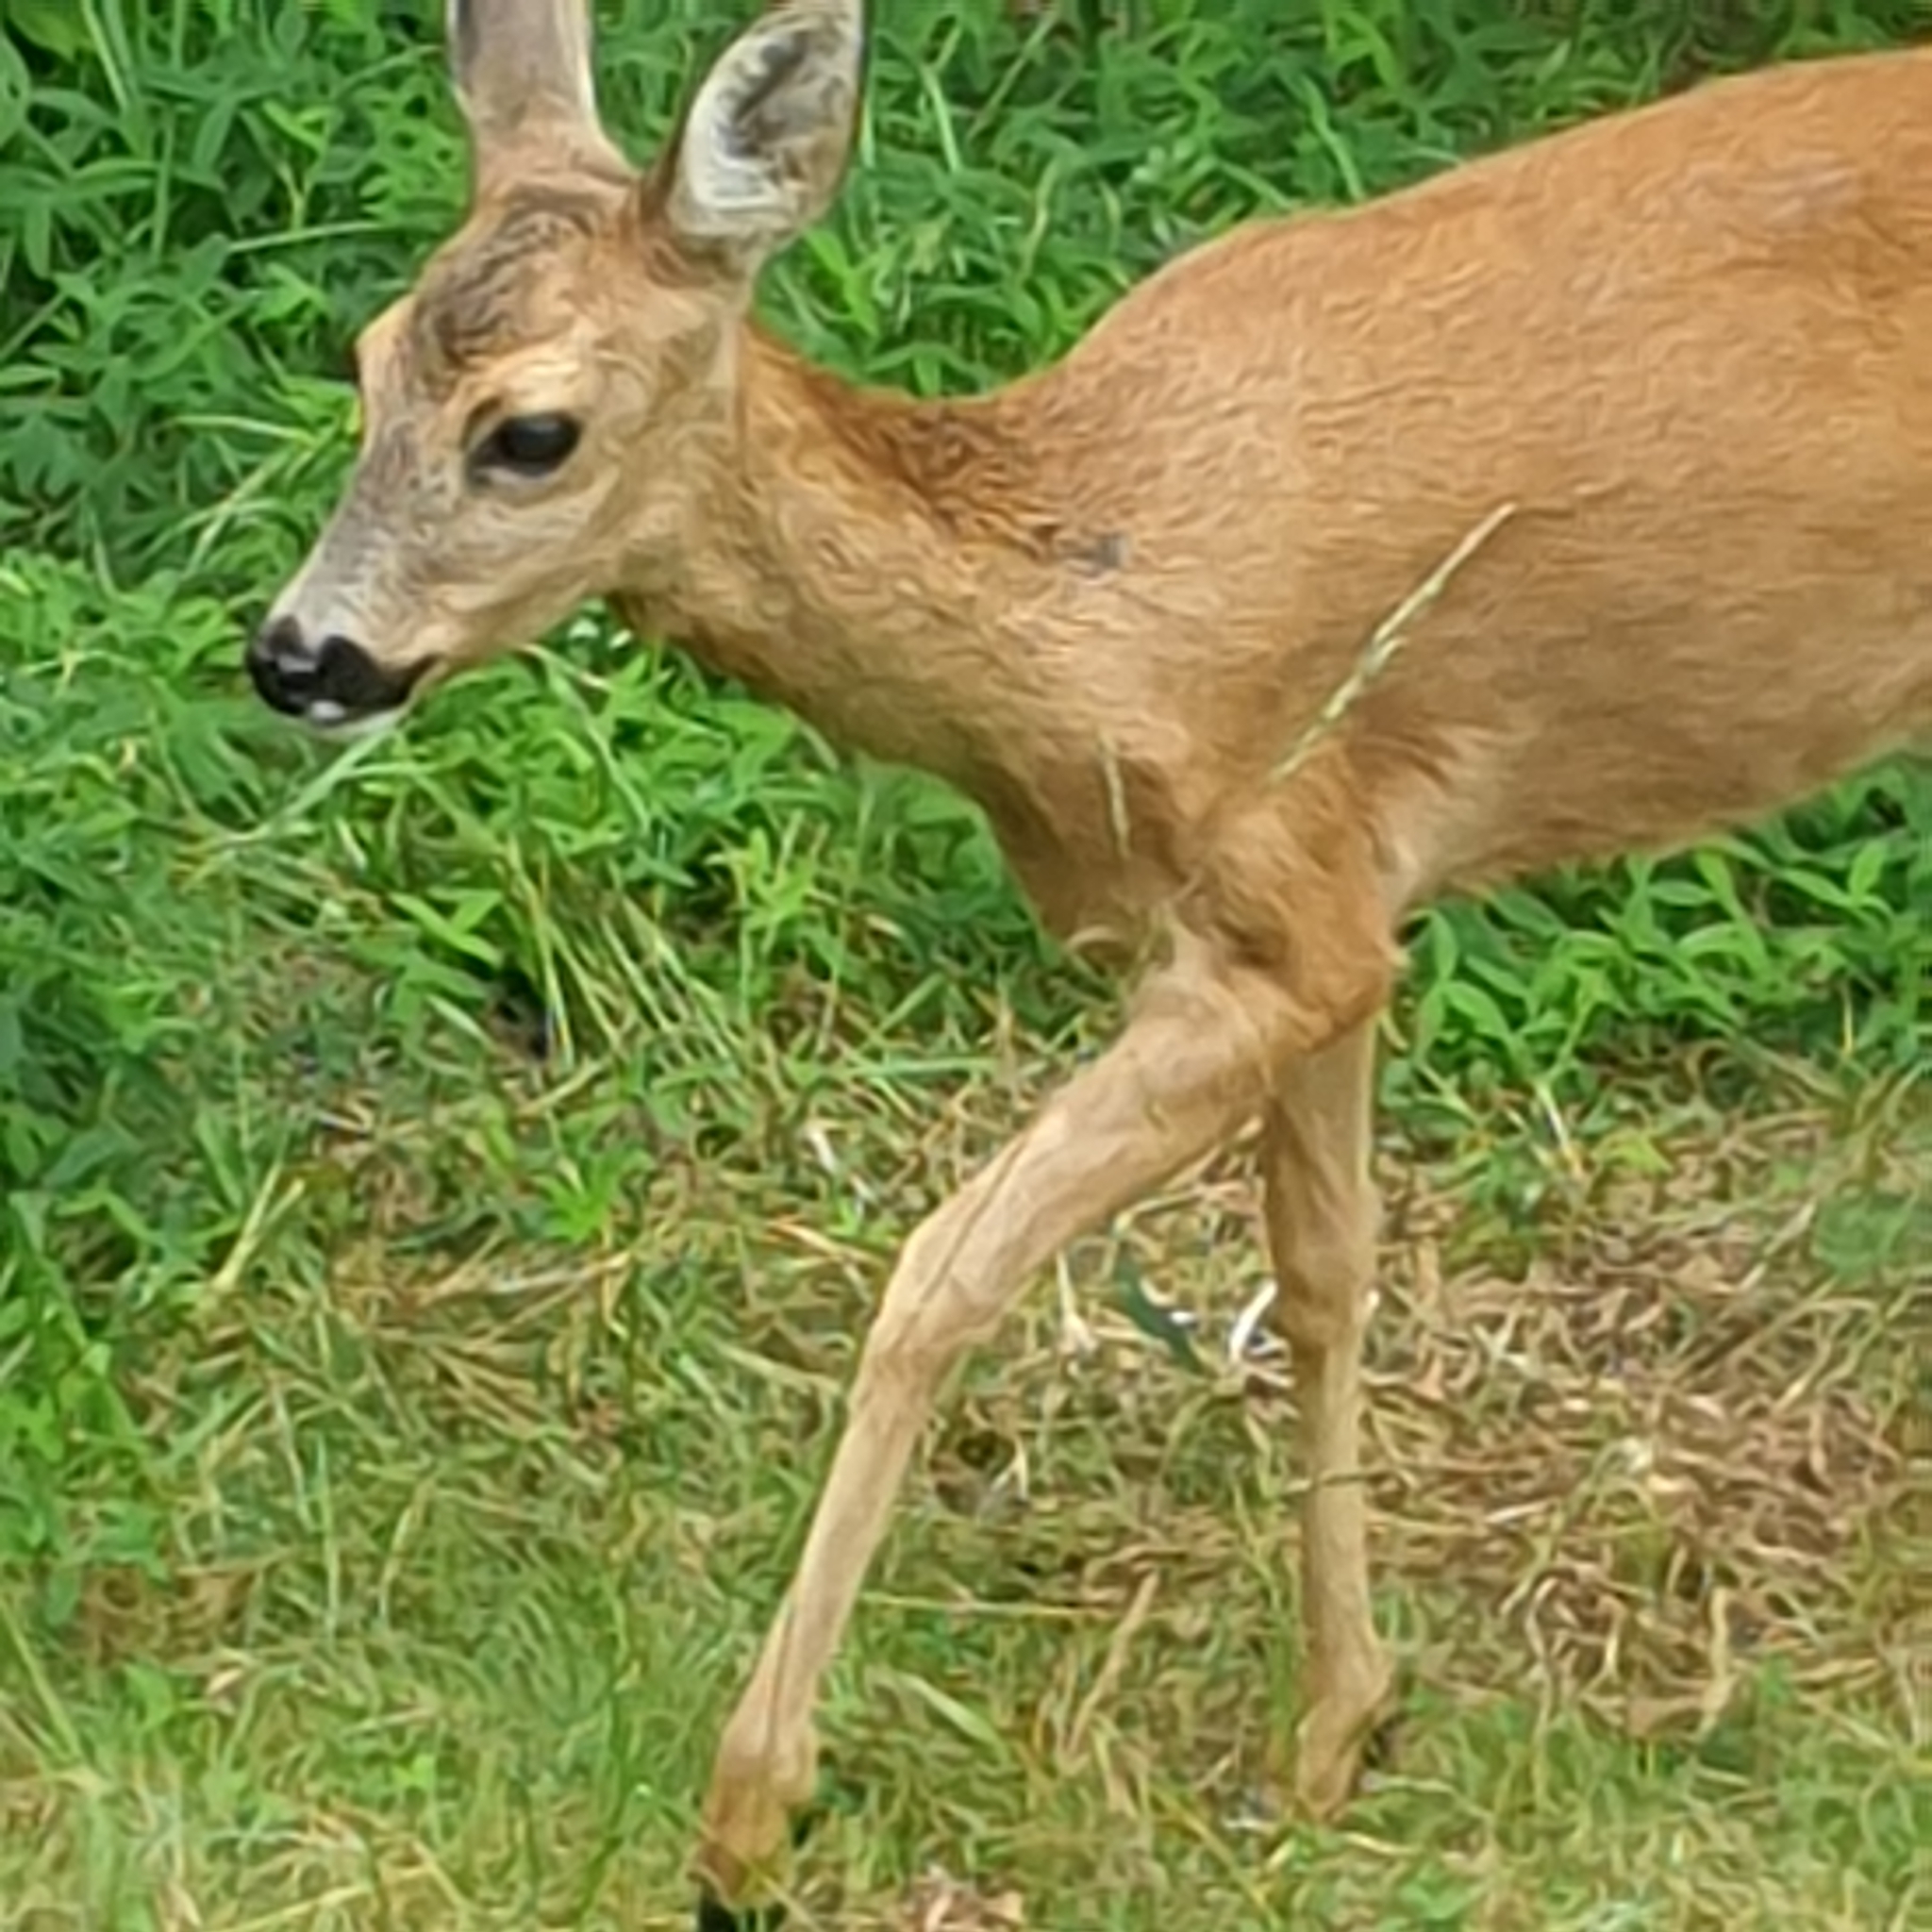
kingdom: Animalia
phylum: Chordata
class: Mammalia
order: Artiodactyla
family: Cervidae
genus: Capreolus
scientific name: Capreolus capreolus
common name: Western roe deer
